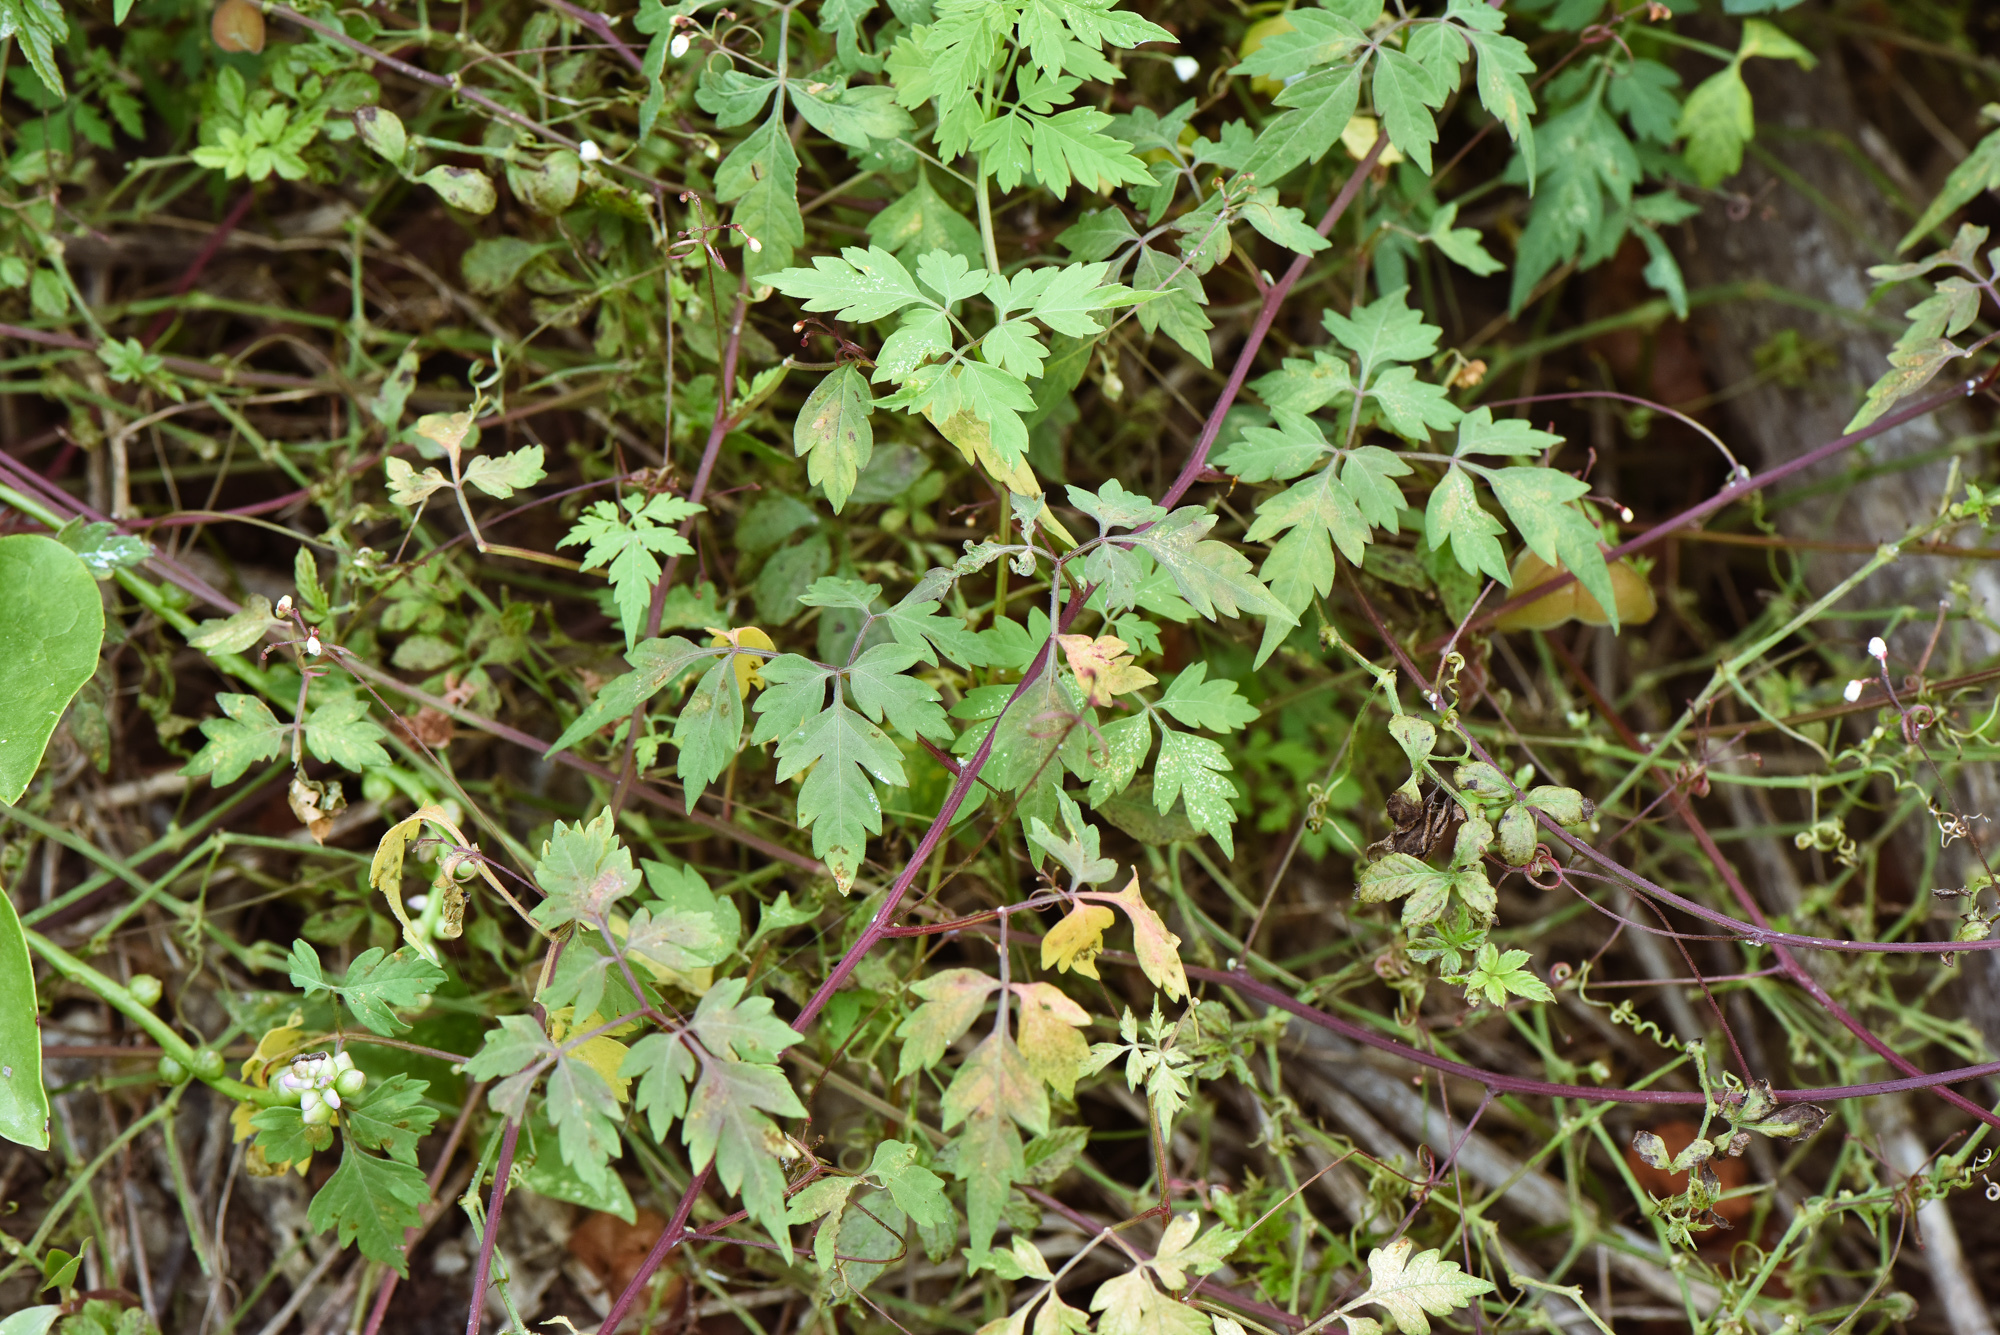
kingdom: Plantae
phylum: Tracheophyta
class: Magnoliopsida
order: Sapindales
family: Sapindaceae
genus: Cardiospermum
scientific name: Cardiospermum halicacabum
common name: Balloon vine
